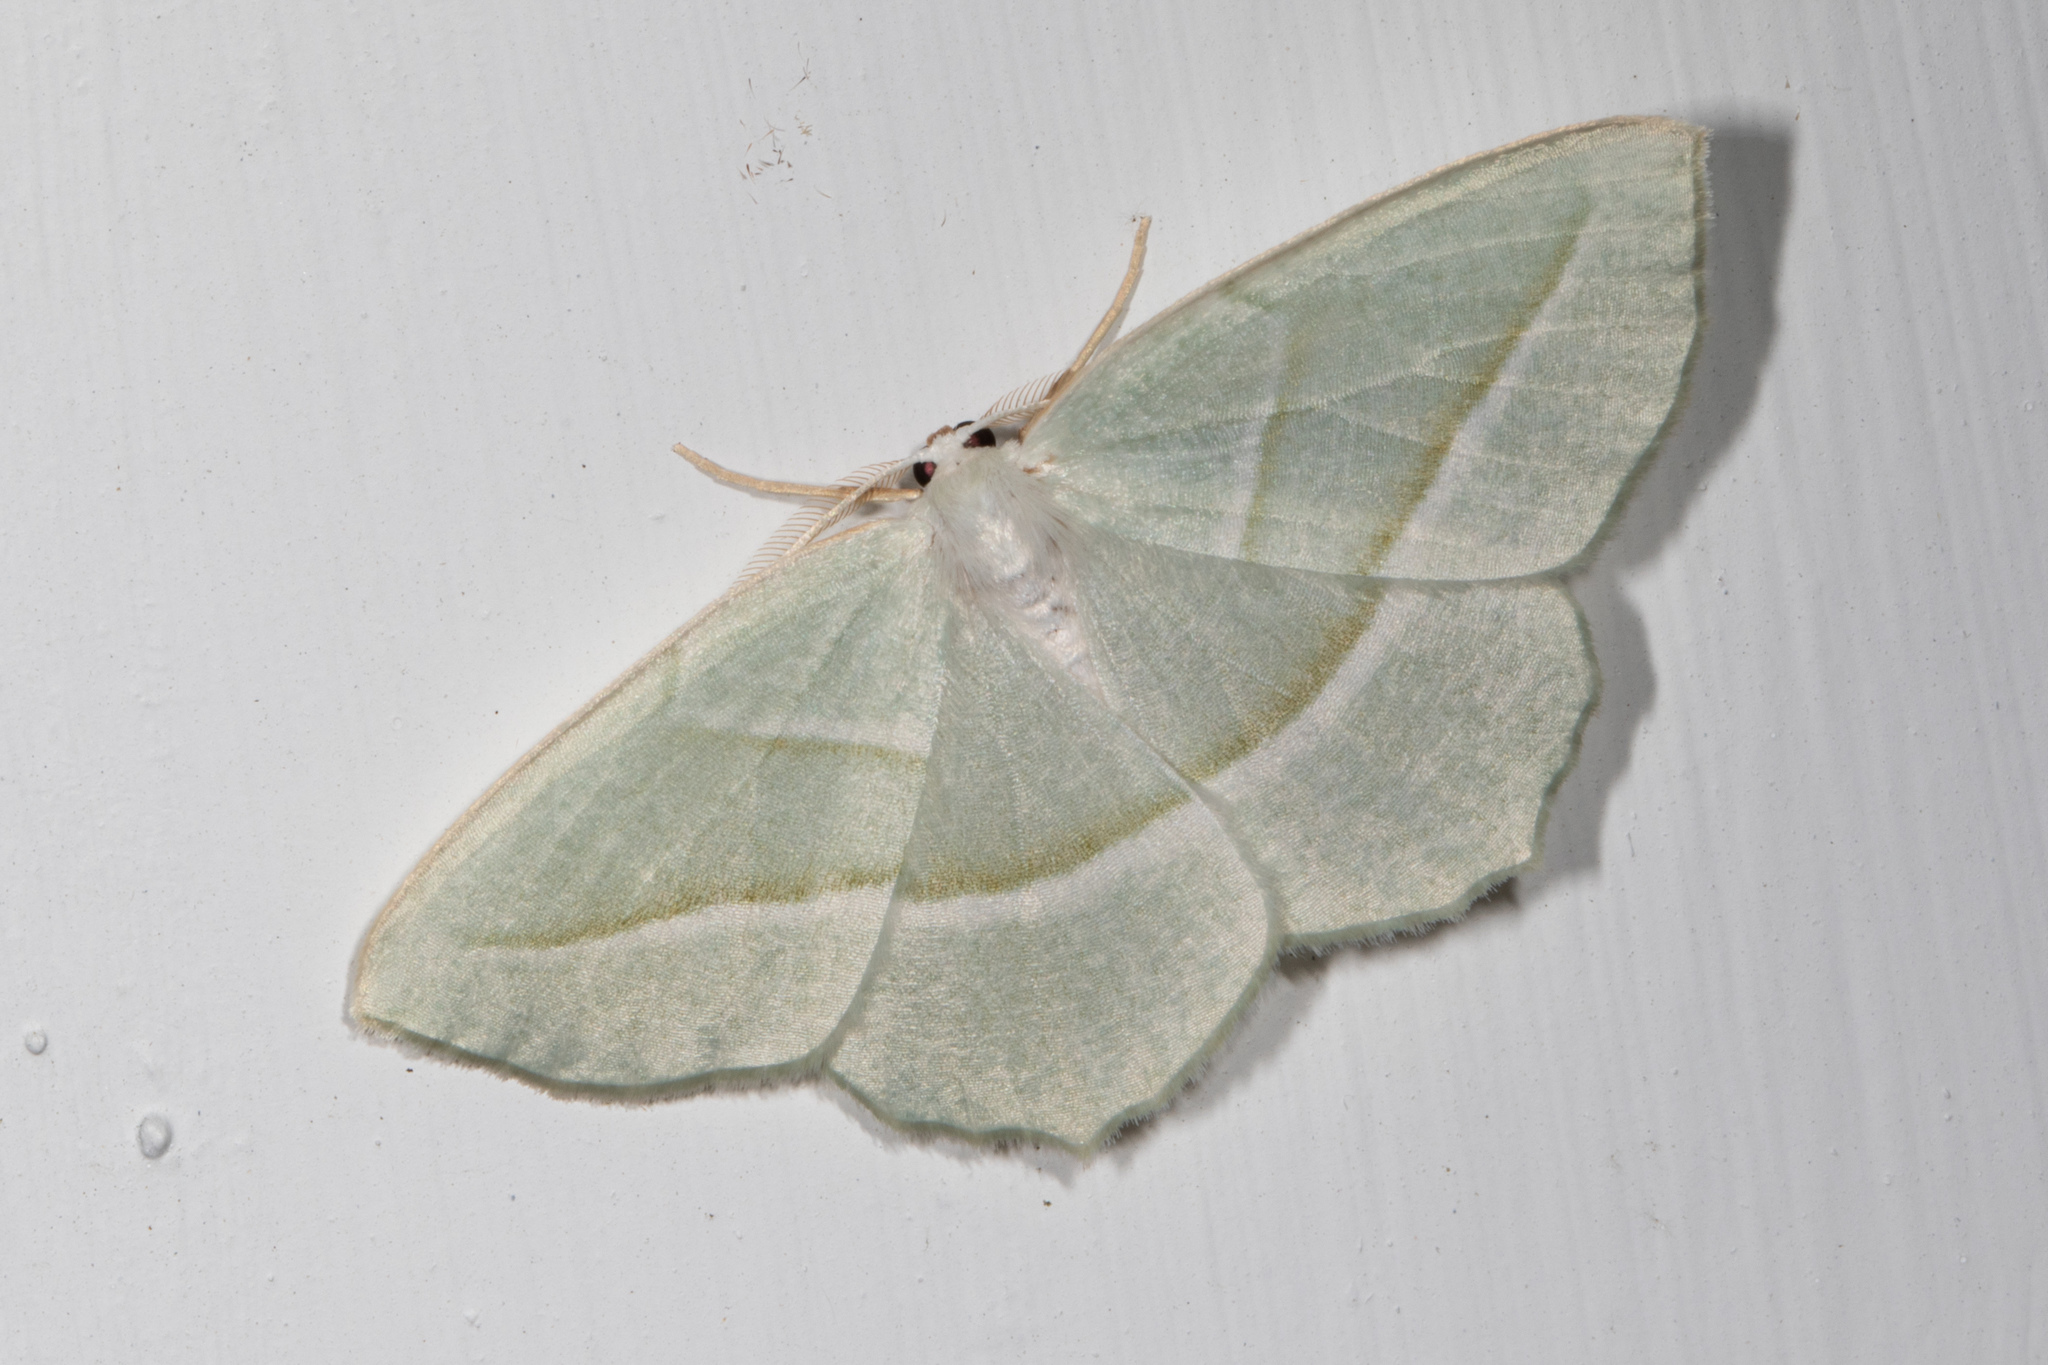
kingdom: Animalia
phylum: Arthropoda
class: Insecta
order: Lepidoptera
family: Geometridae
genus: Campaea
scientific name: Campaea perlata
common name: Fringed looper
